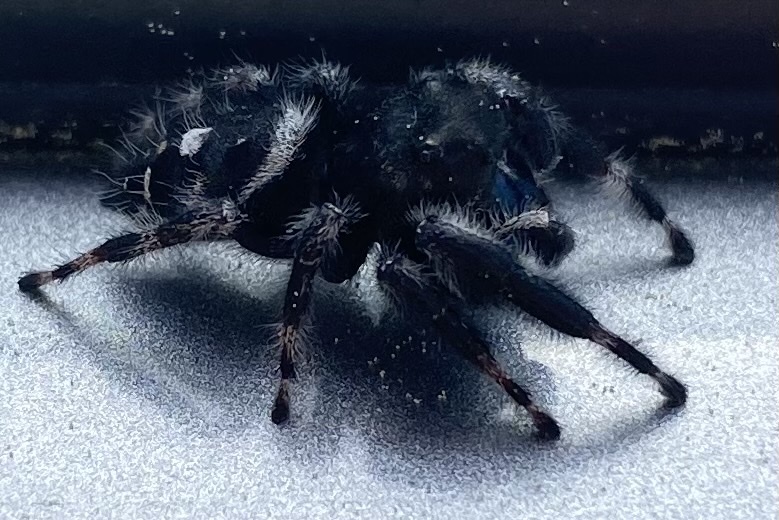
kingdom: Animalia
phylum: Arthropoda
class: Arachnida
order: Araneae
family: Salticidae
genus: Phidippus
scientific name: Phidippus audax
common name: Bold jumper
